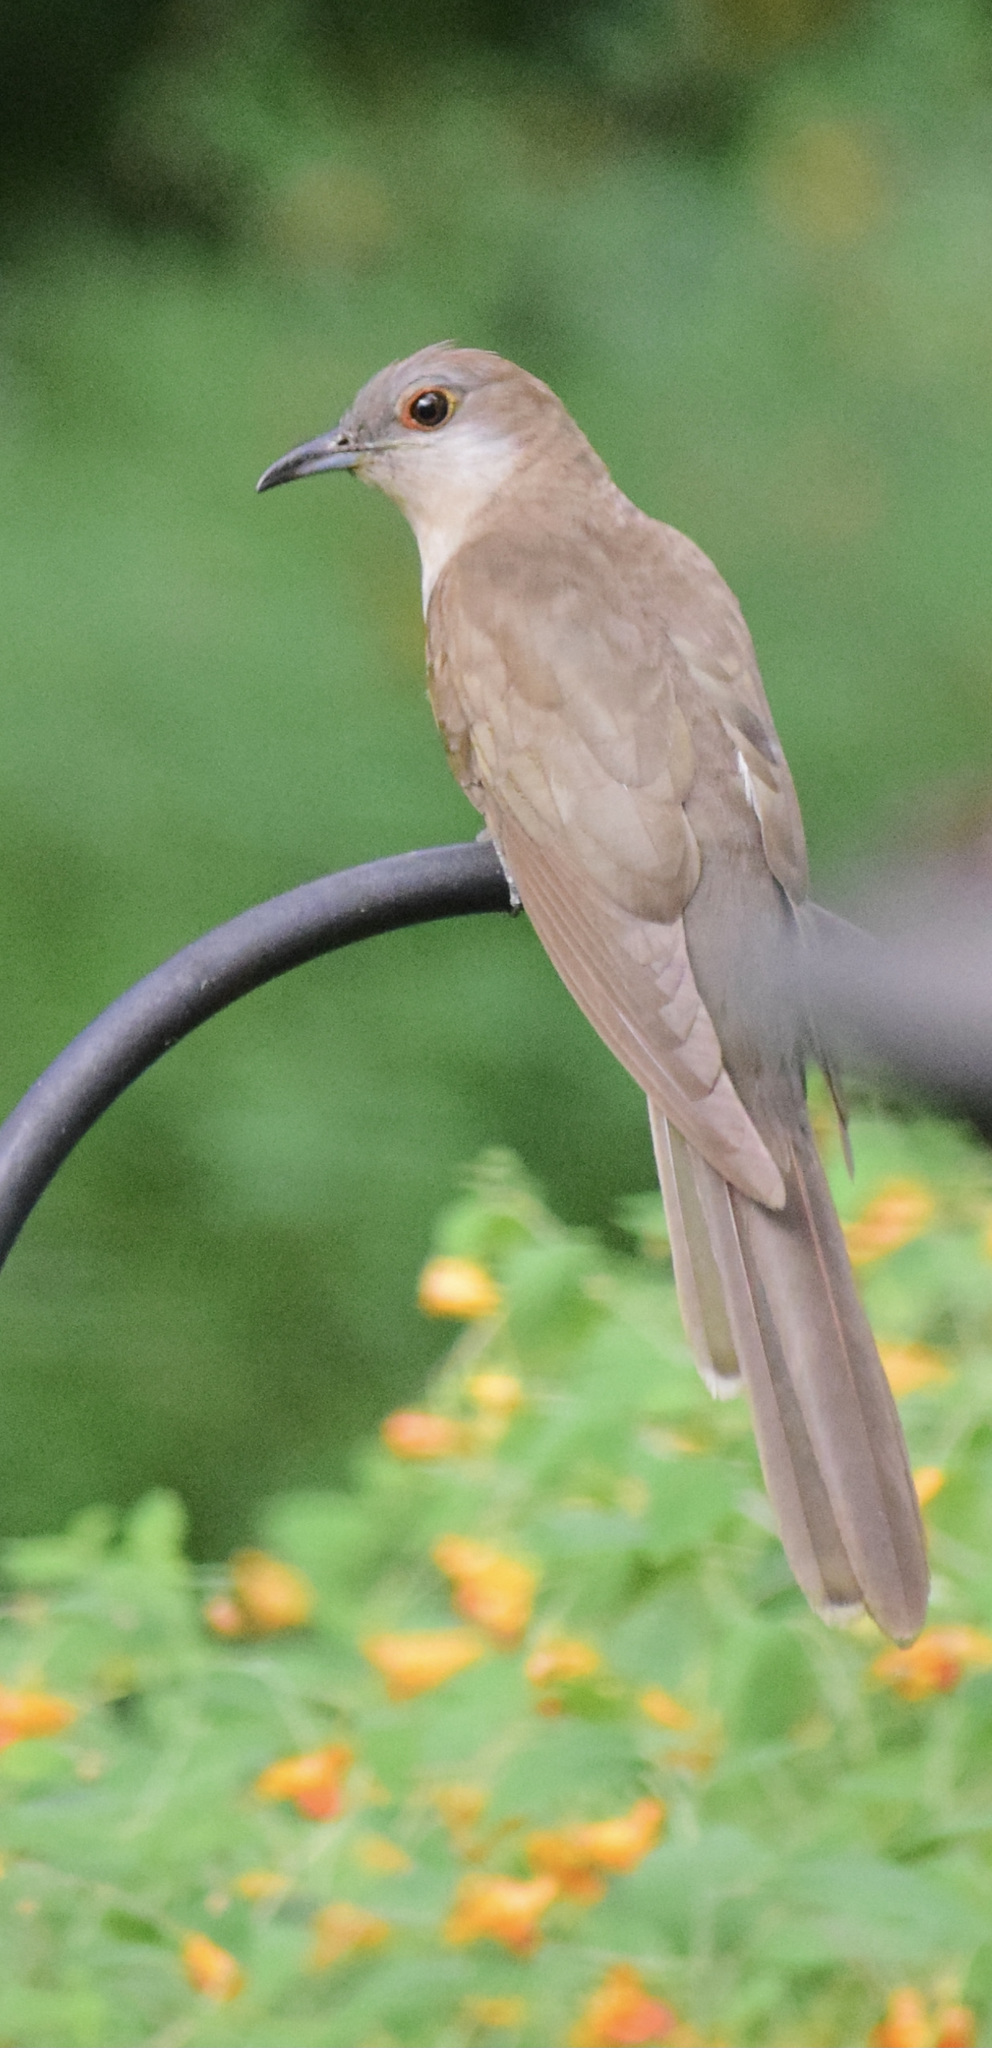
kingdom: Animalia
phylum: Chordata
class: Aves
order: Cuculiformes
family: Cuculidae
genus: Coccyzus
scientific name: Coccyzus erythropthalmus
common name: Black-billed cuckoo
